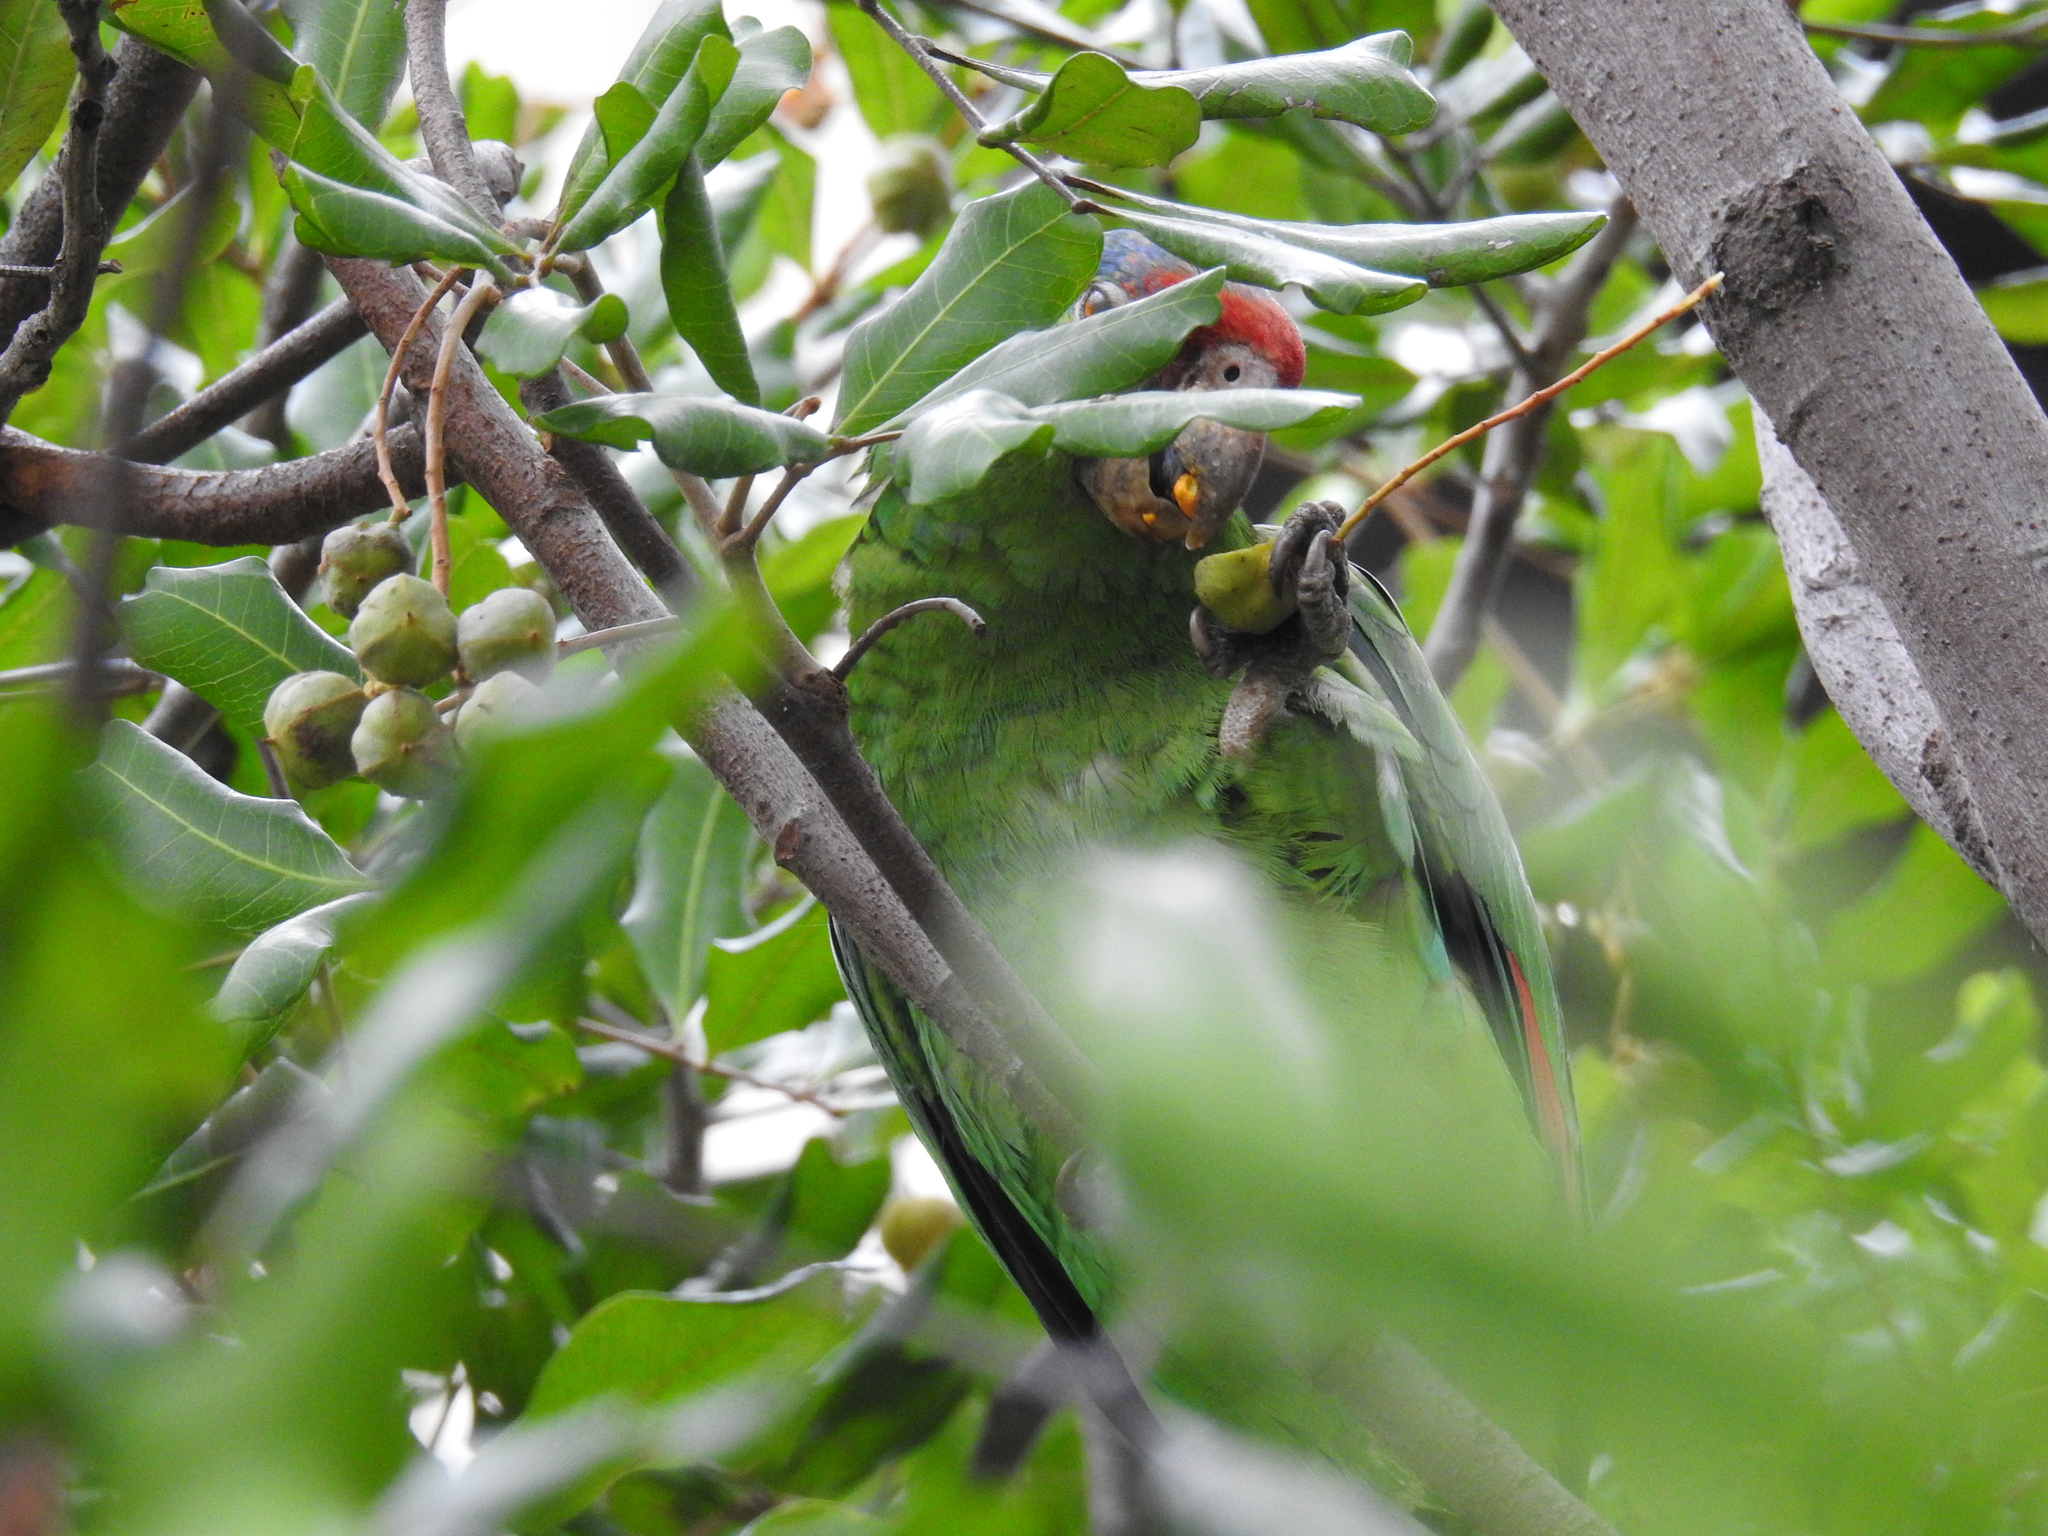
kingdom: Animalia
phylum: Chordata
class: Aves
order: Psittaciformes
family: Psittacidae
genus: Amazona
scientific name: Amazona viridigenalis
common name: Red-crowned amazon
